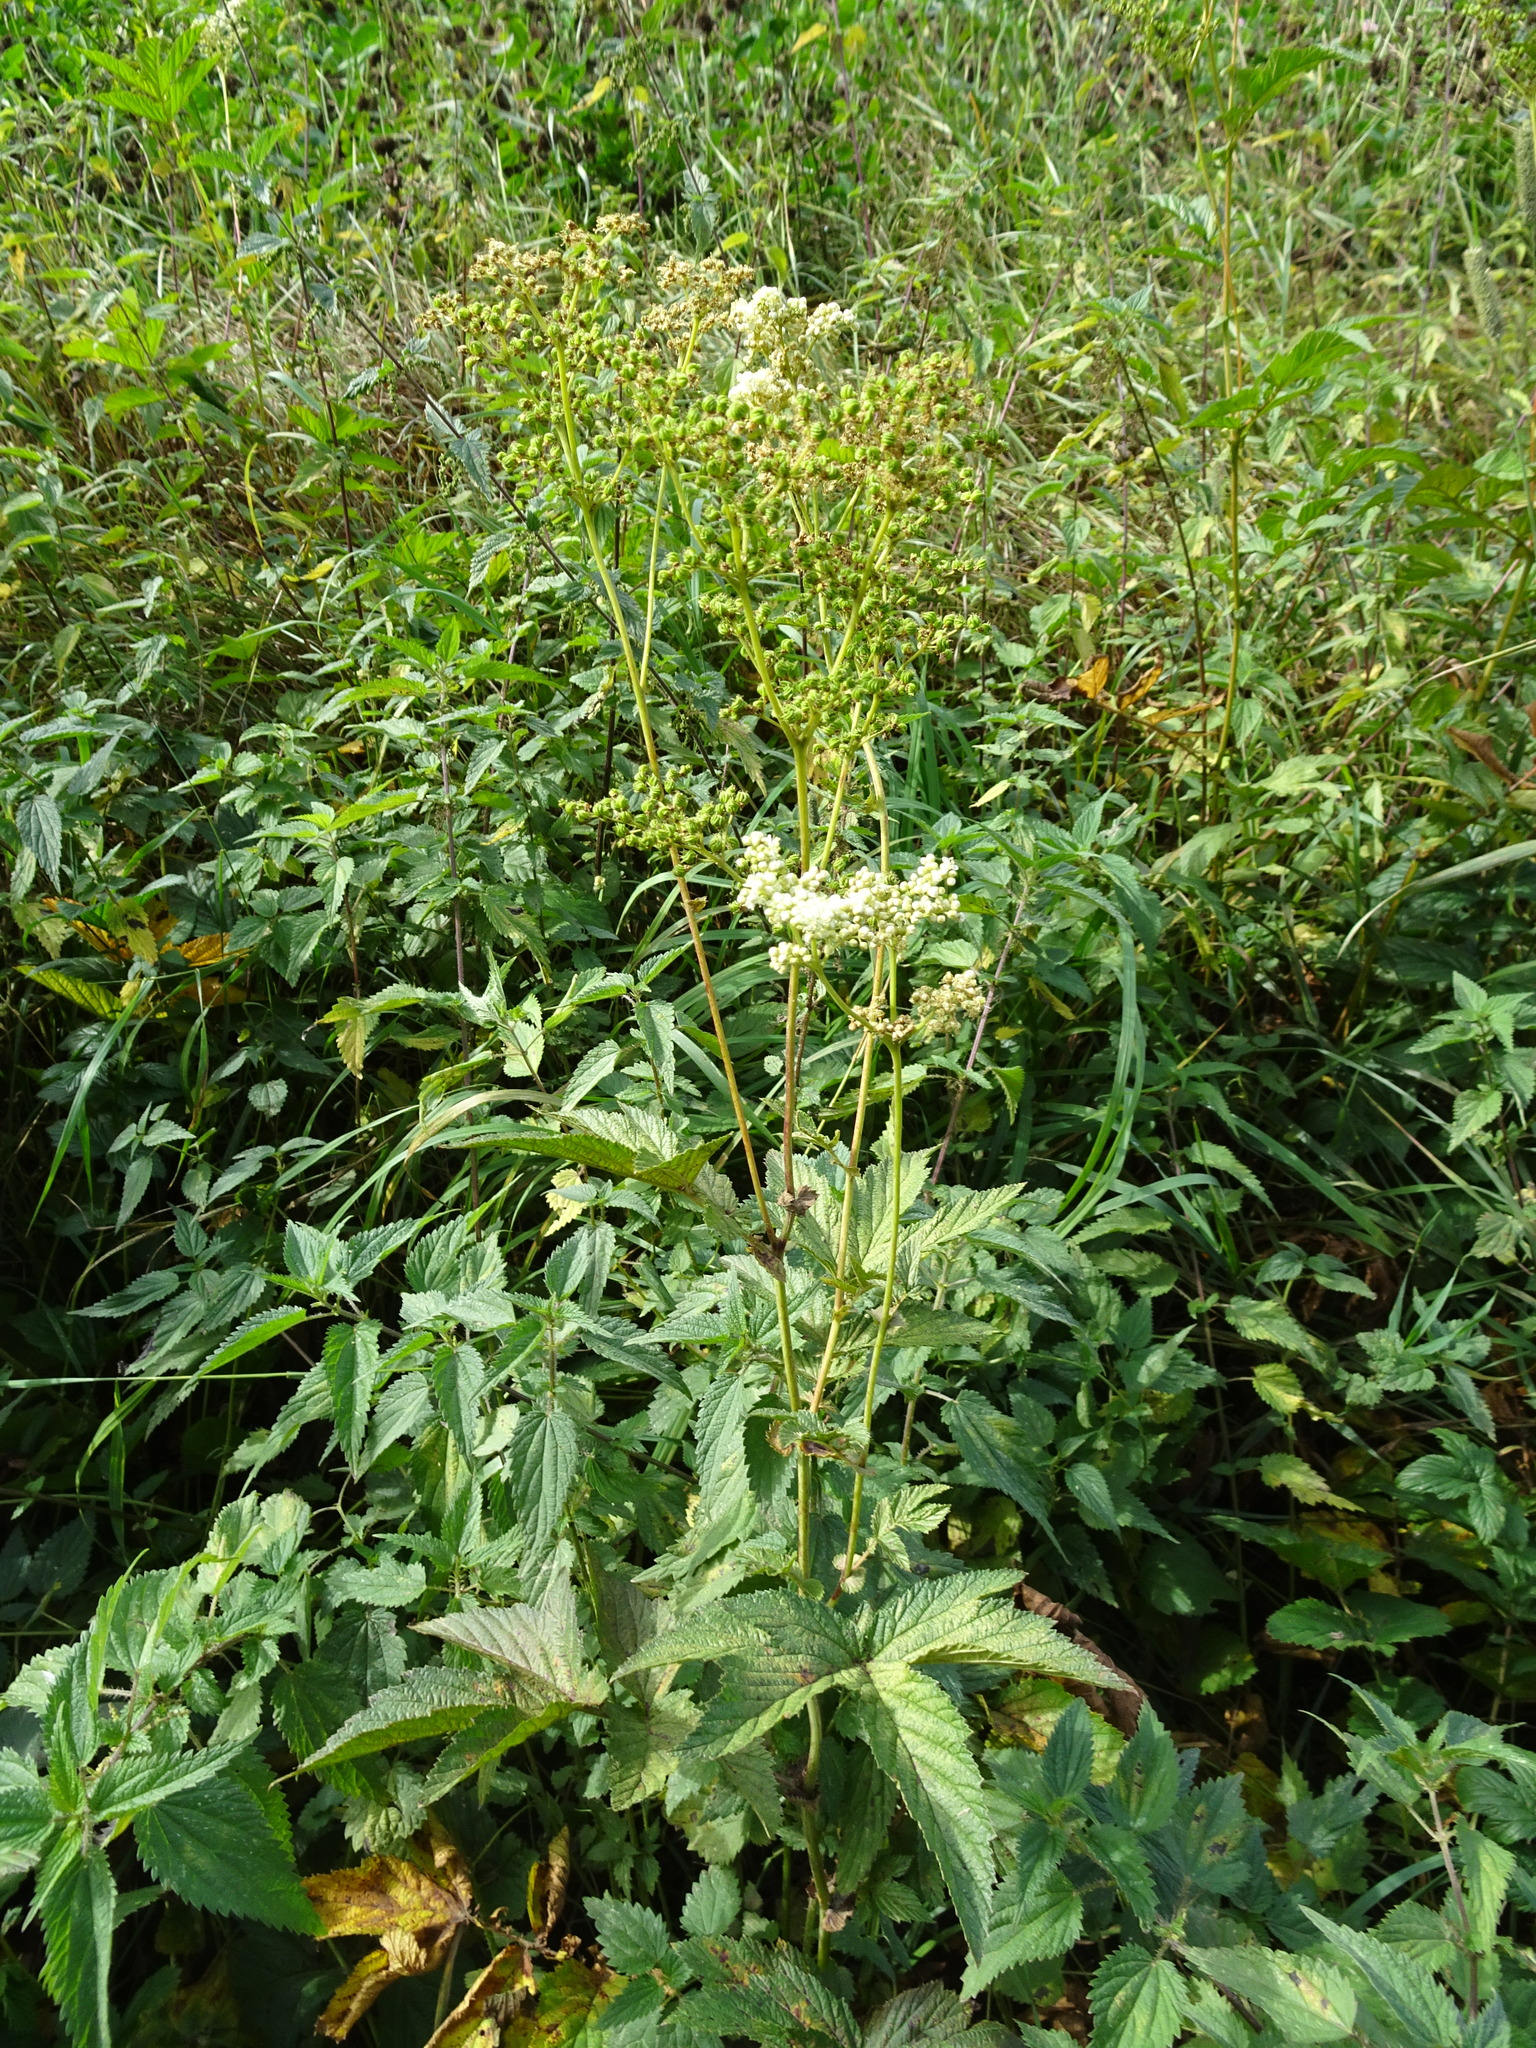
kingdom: Plantae
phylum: Tracheophyta
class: Magnoliopsida
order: Rosales
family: Rosaceae
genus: Filipendula
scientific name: Filipendula ulmaria
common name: Meadowsweet
